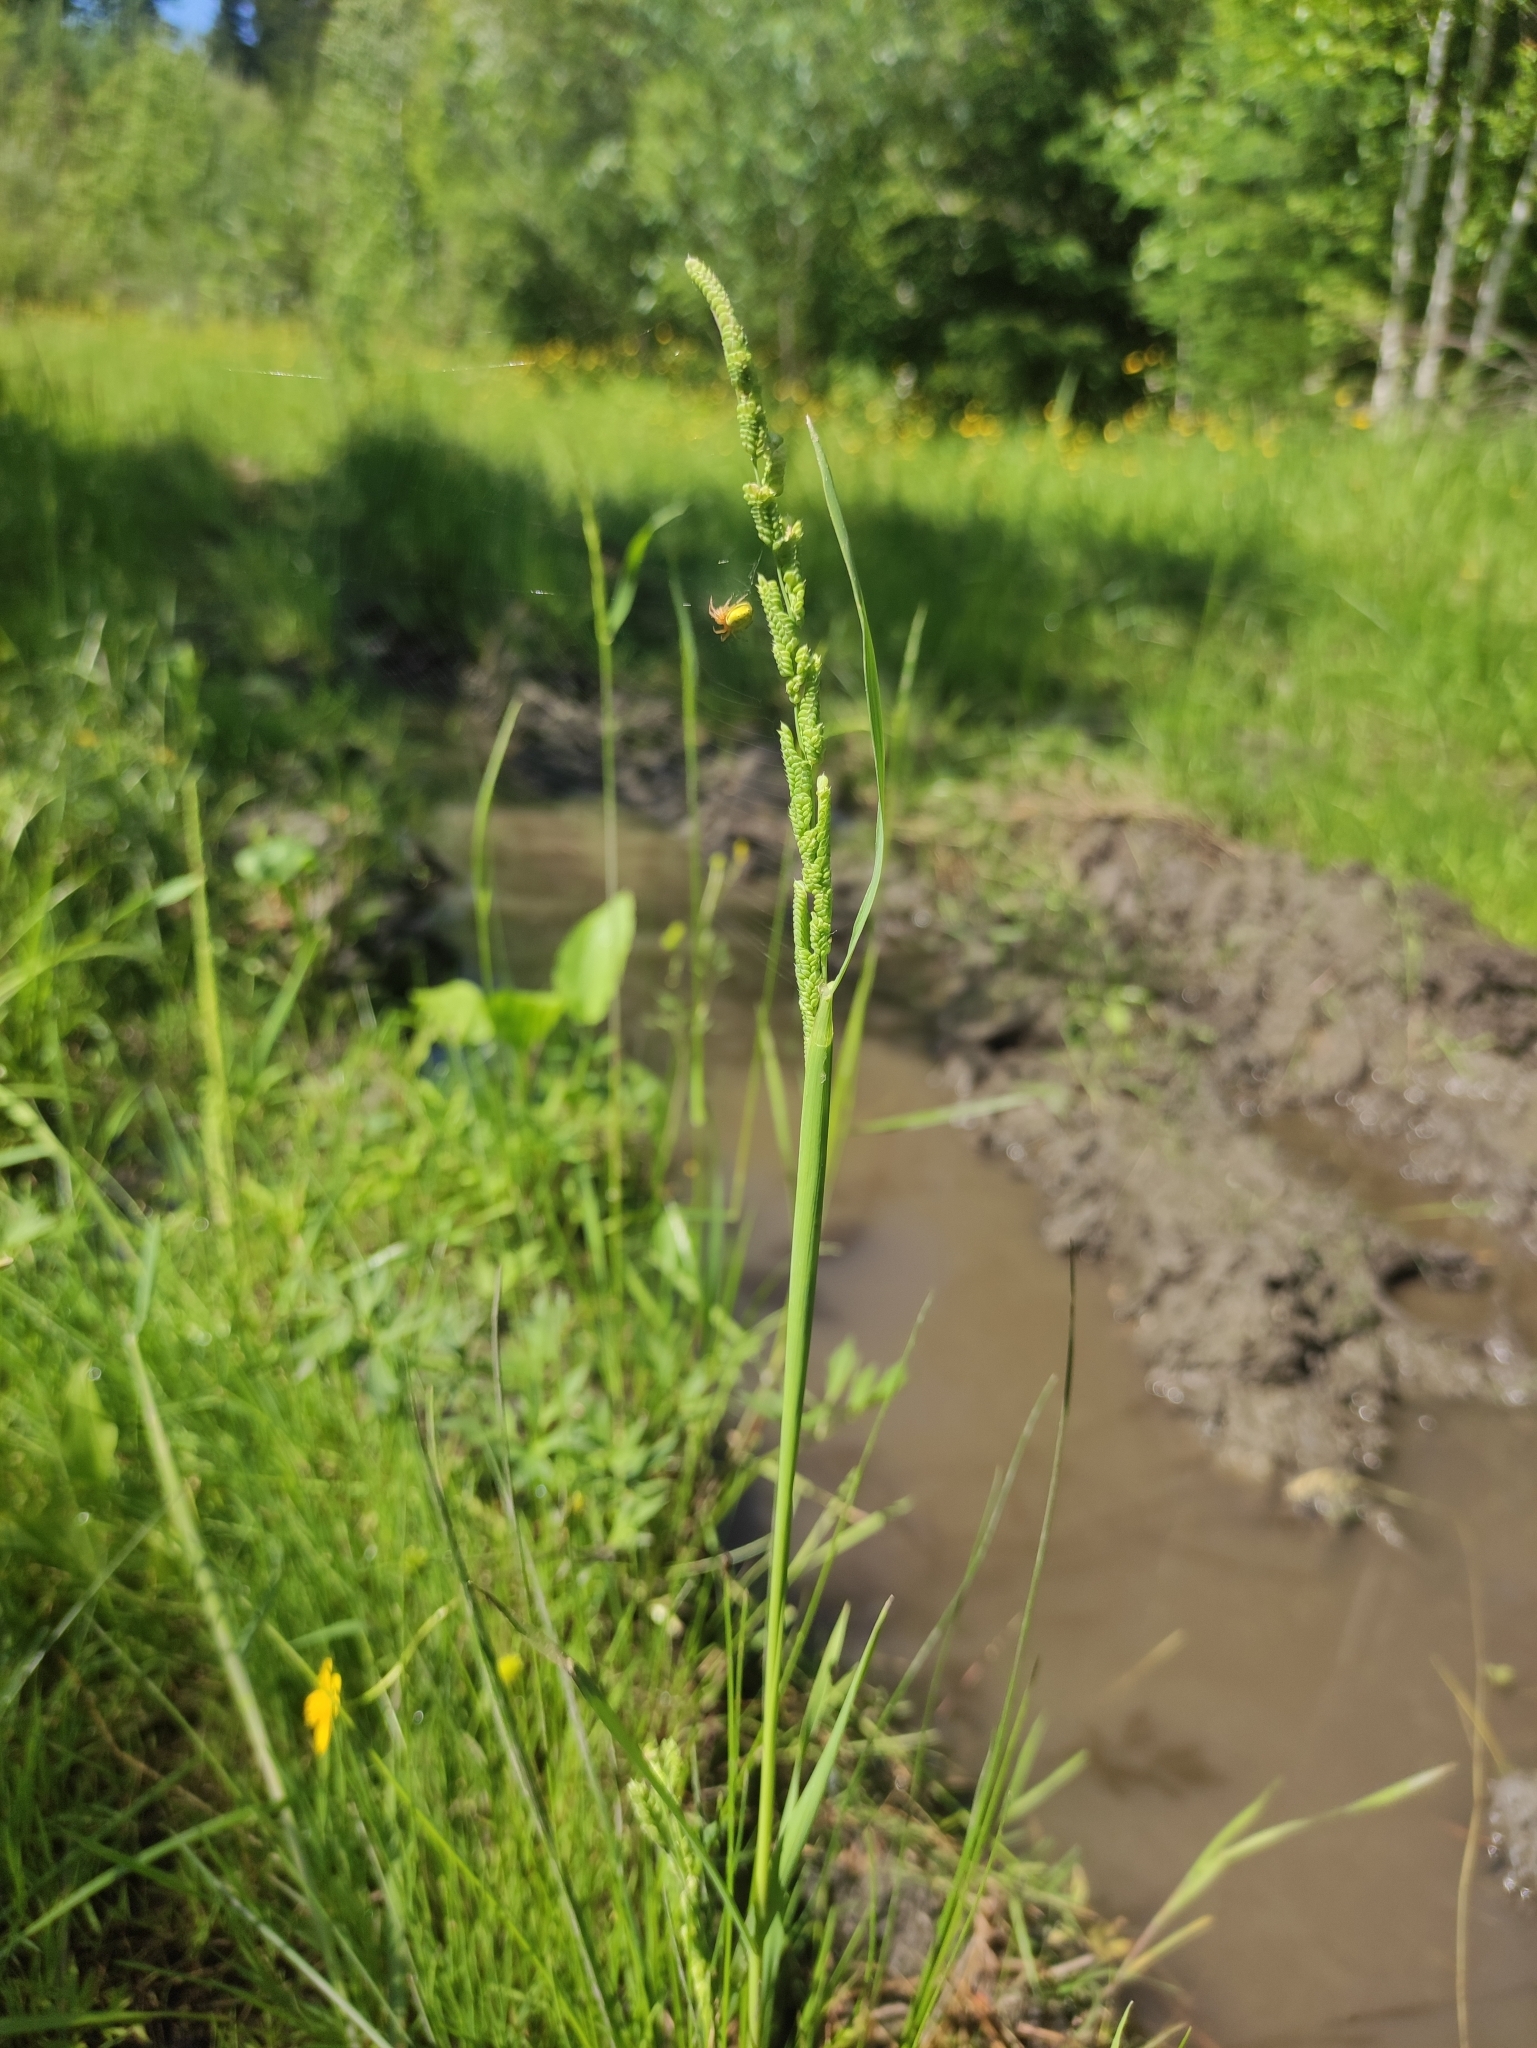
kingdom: Plantae
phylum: Tracheophyta
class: Liliopsida
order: Poales
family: Poaceae
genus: Beckmannia
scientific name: Beckmannia syzigachne
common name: American slough-grass
